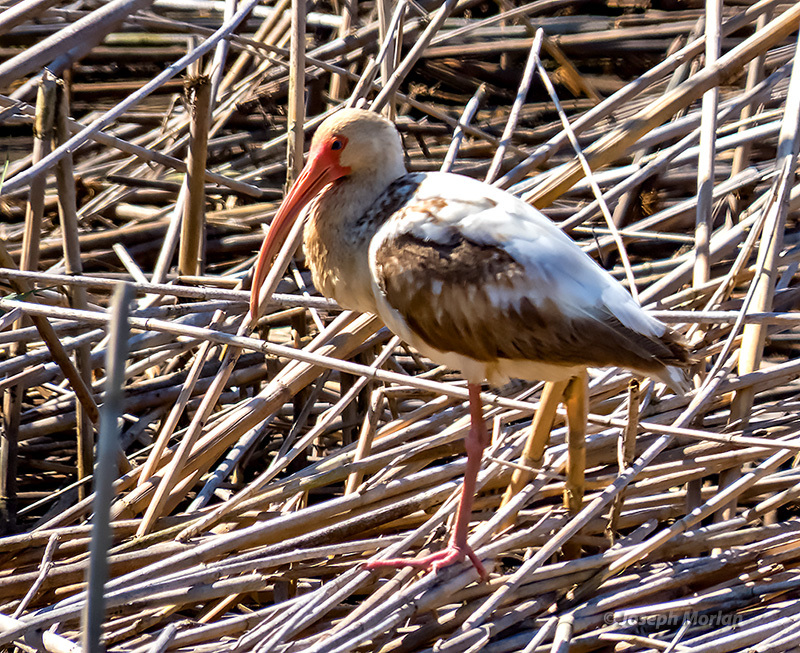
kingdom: Animalia
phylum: Chordata
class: Aves
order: Pelecaniformes
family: Threskiornithidae
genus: Eudocimus
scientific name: Eudocimus albus
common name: White ibis
